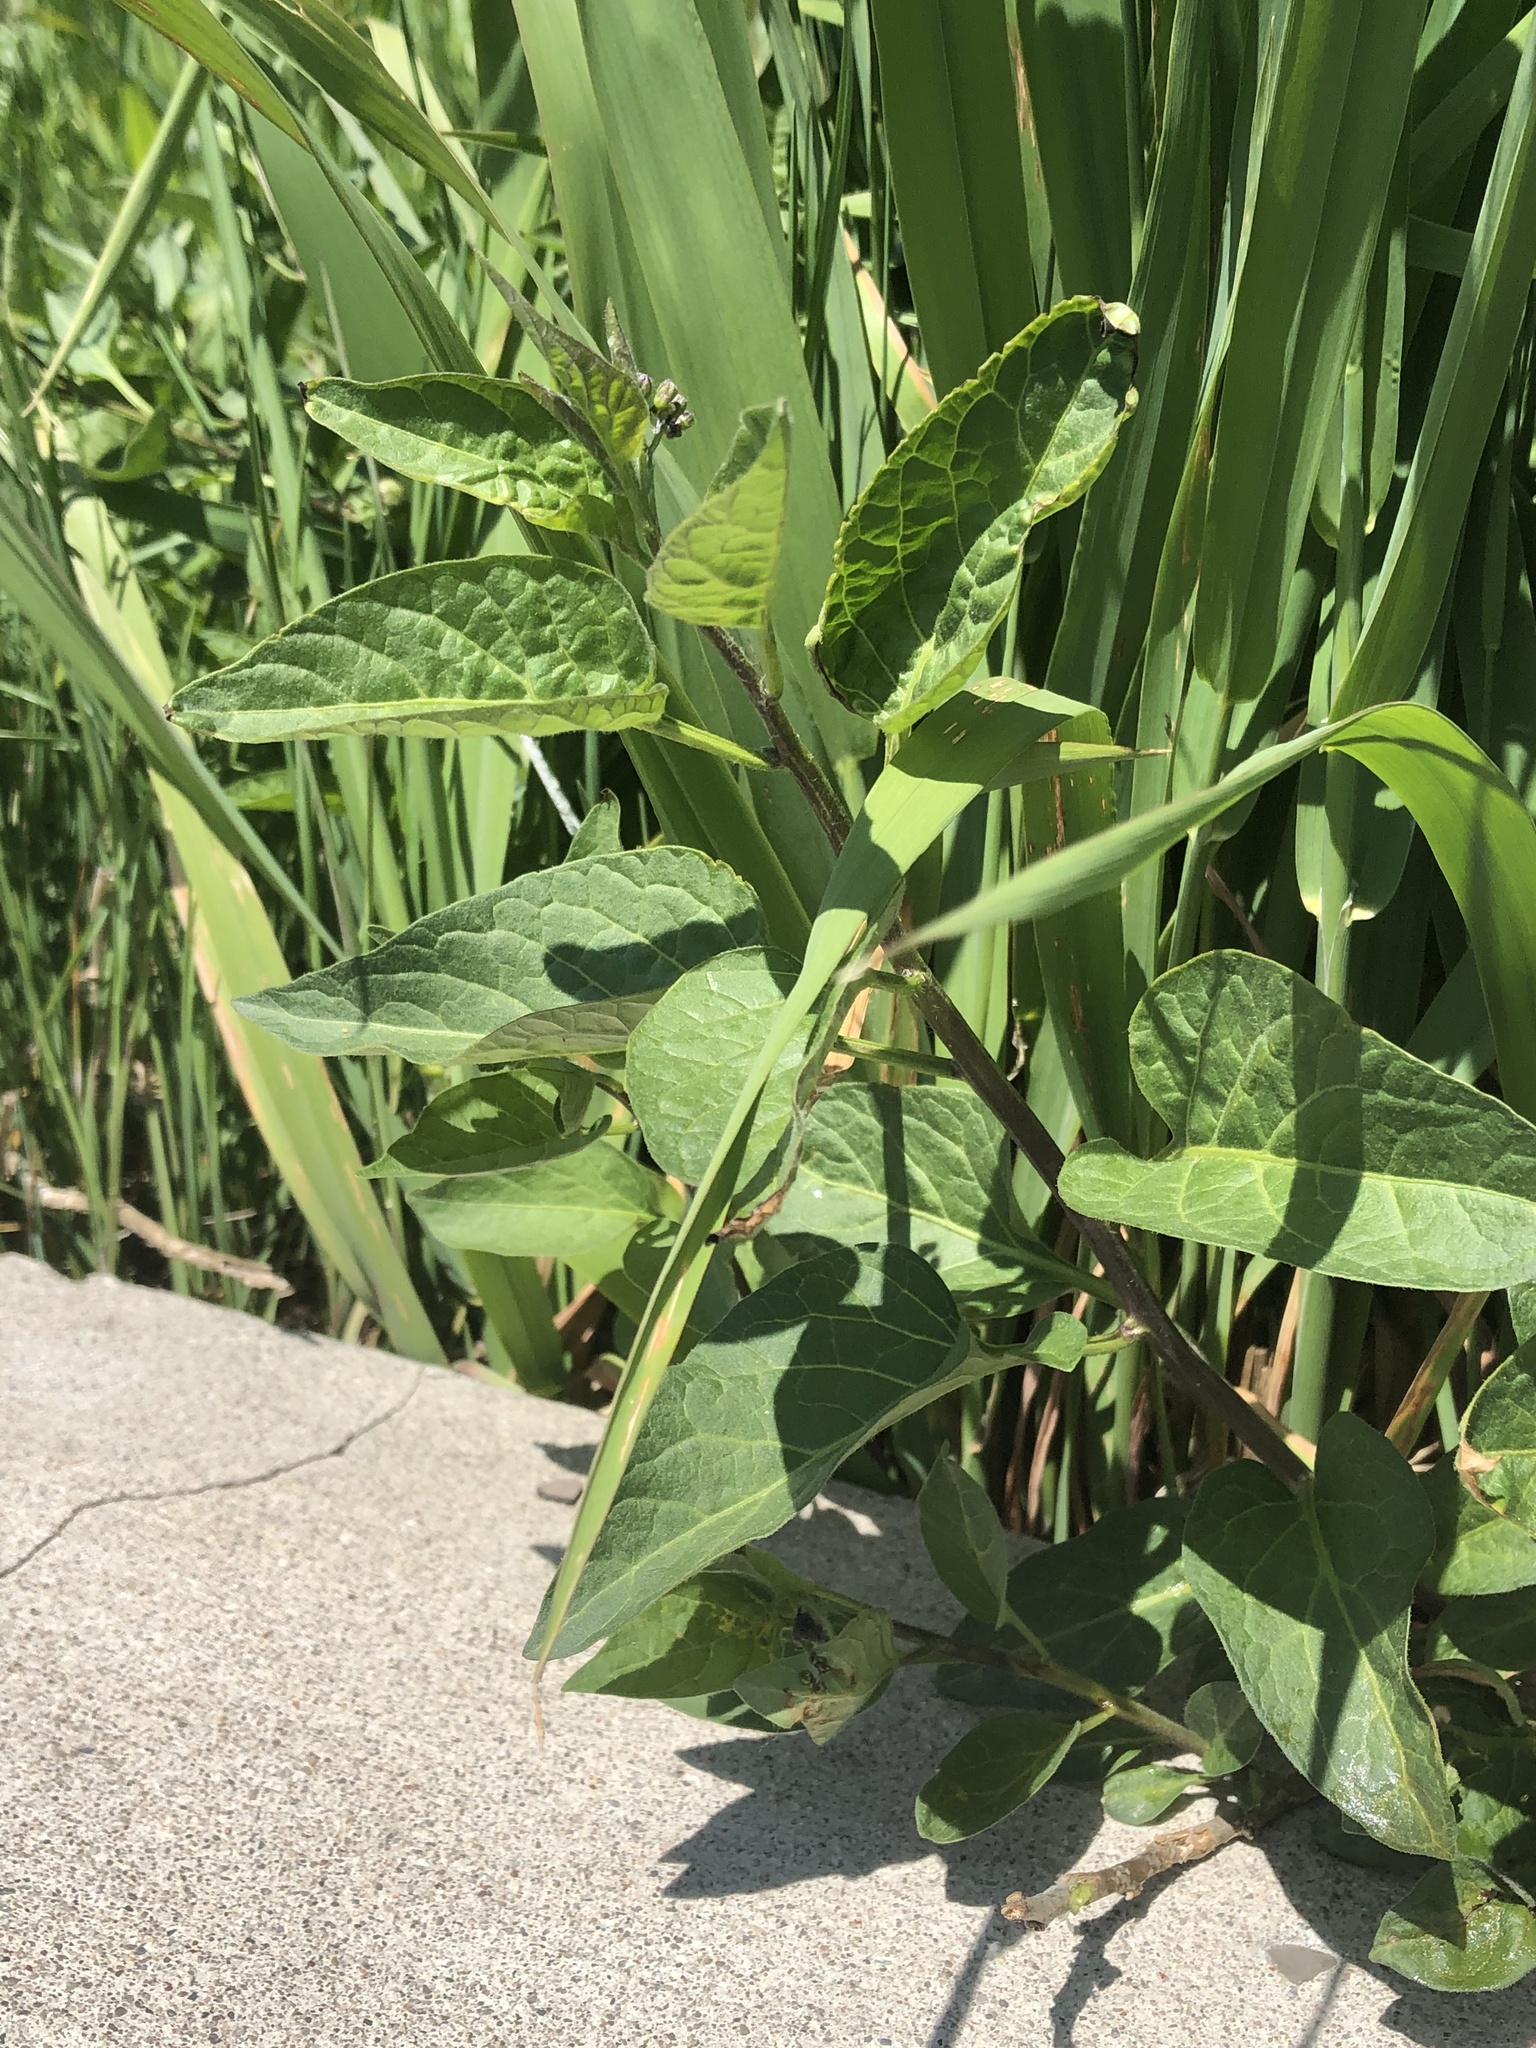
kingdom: Plantae
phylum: Tracheophyta
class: Magnoliopsida
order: Solanales
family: Solanaceae
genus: Solanum
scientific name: Solanum dulcamara
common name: Climbing nightshade
